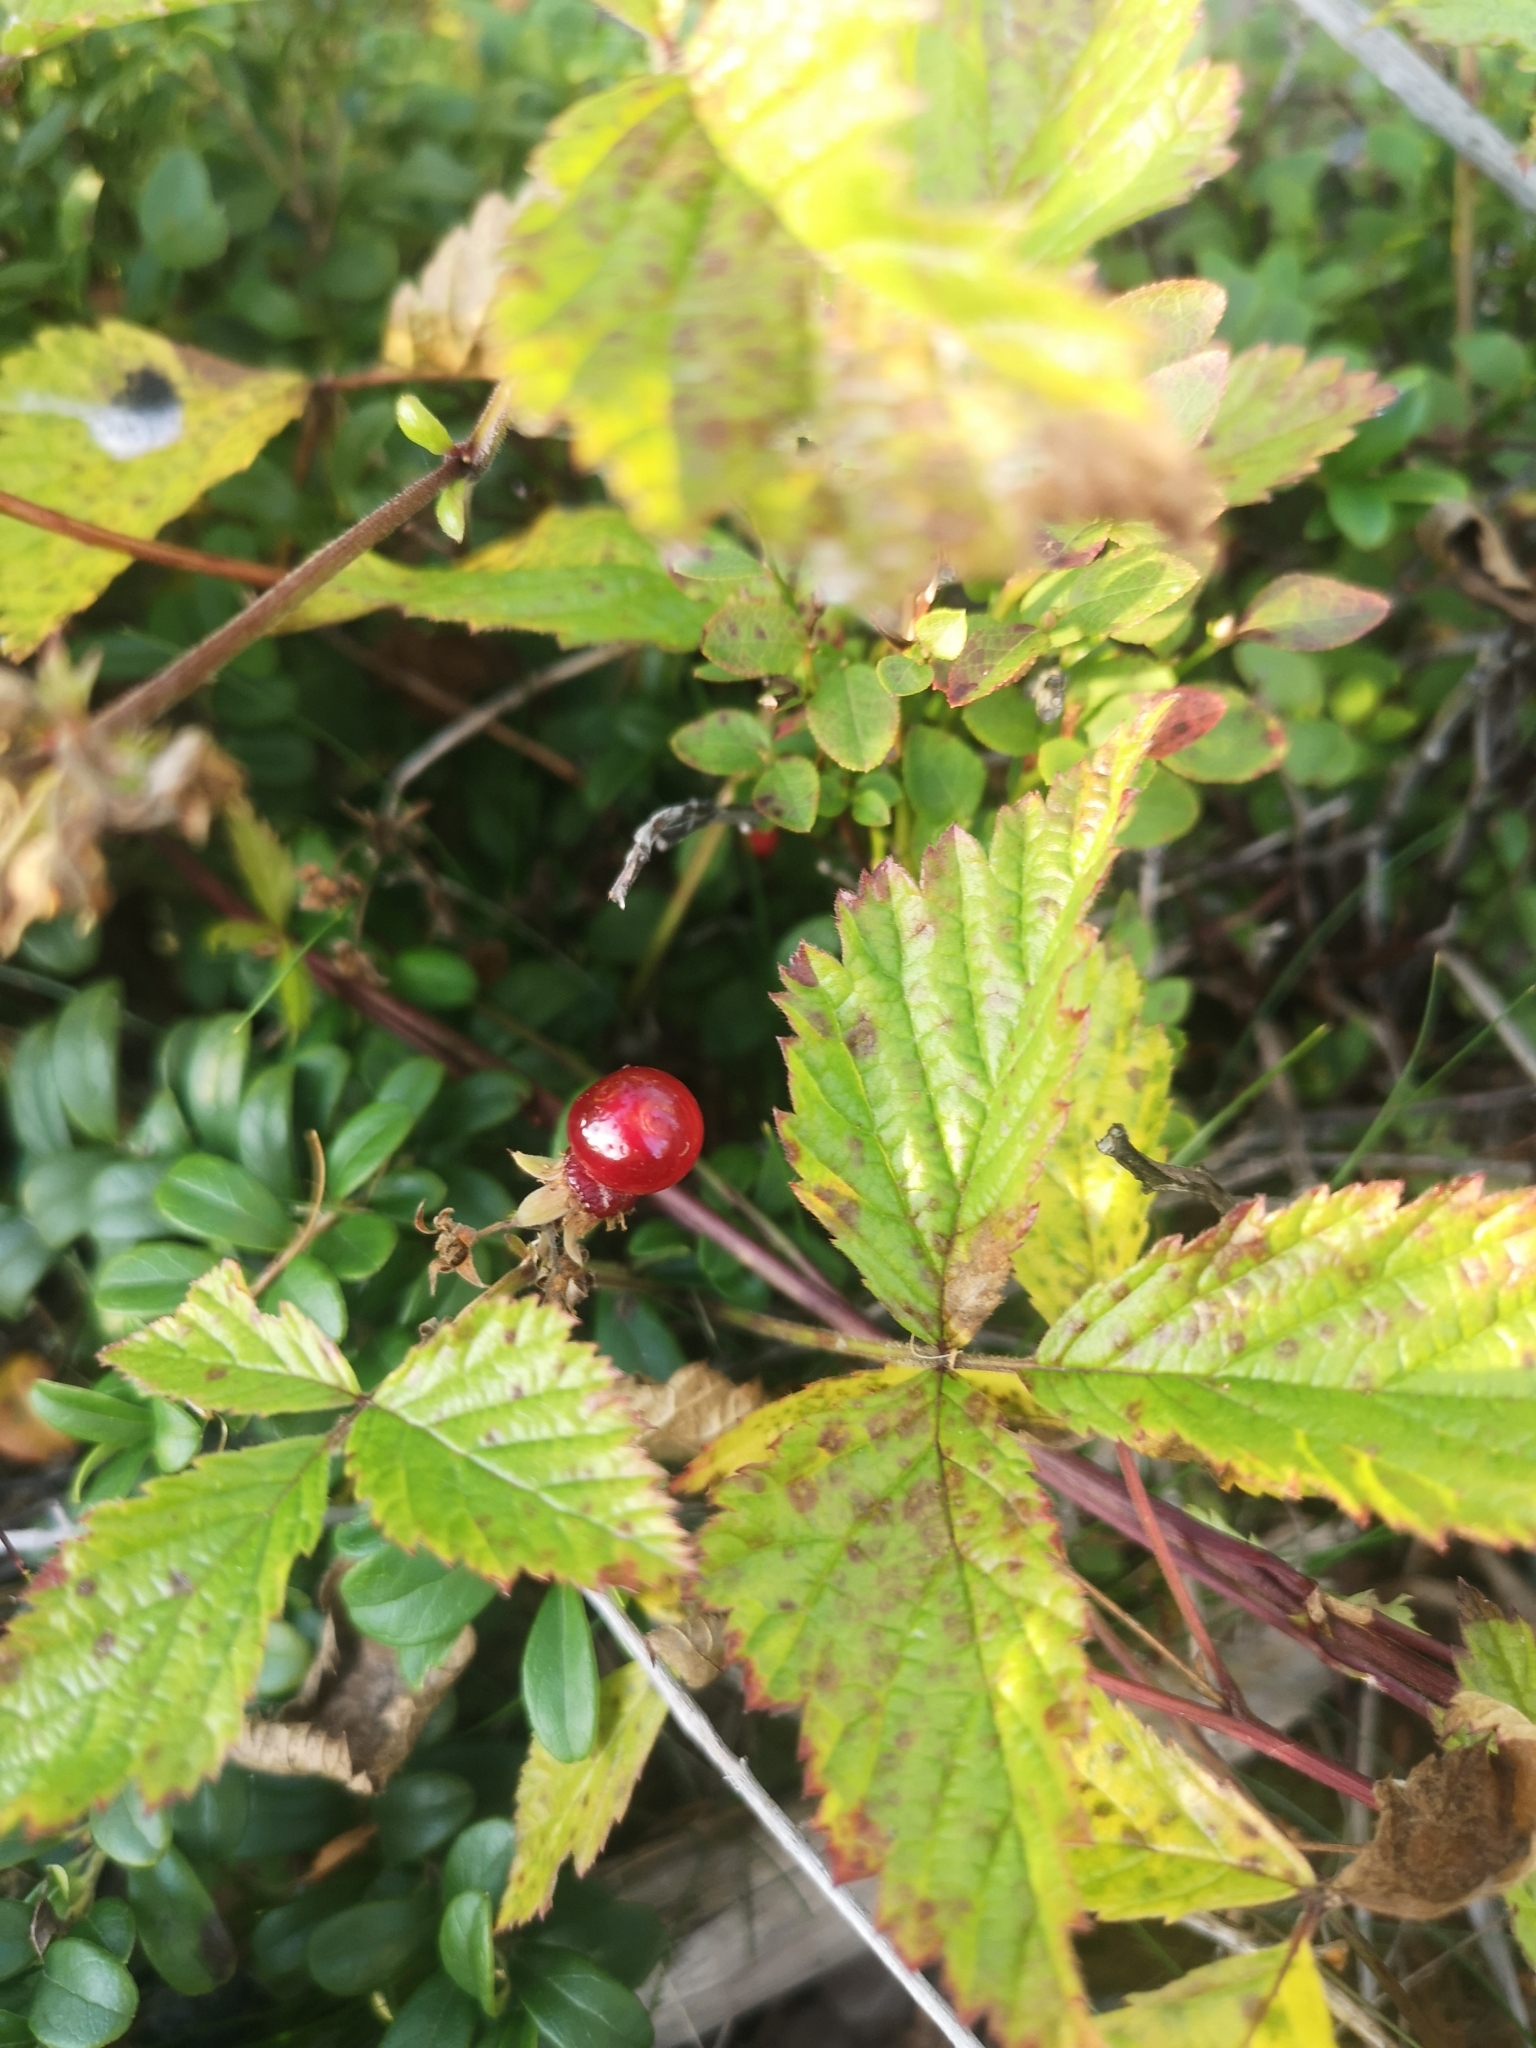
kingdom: Plantae
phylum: Tracheophyta
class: Magnoliopsida
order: Rosales
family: Rosaceae
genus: Rubus
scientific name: Rubus saxatilis
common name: Stone bramble
